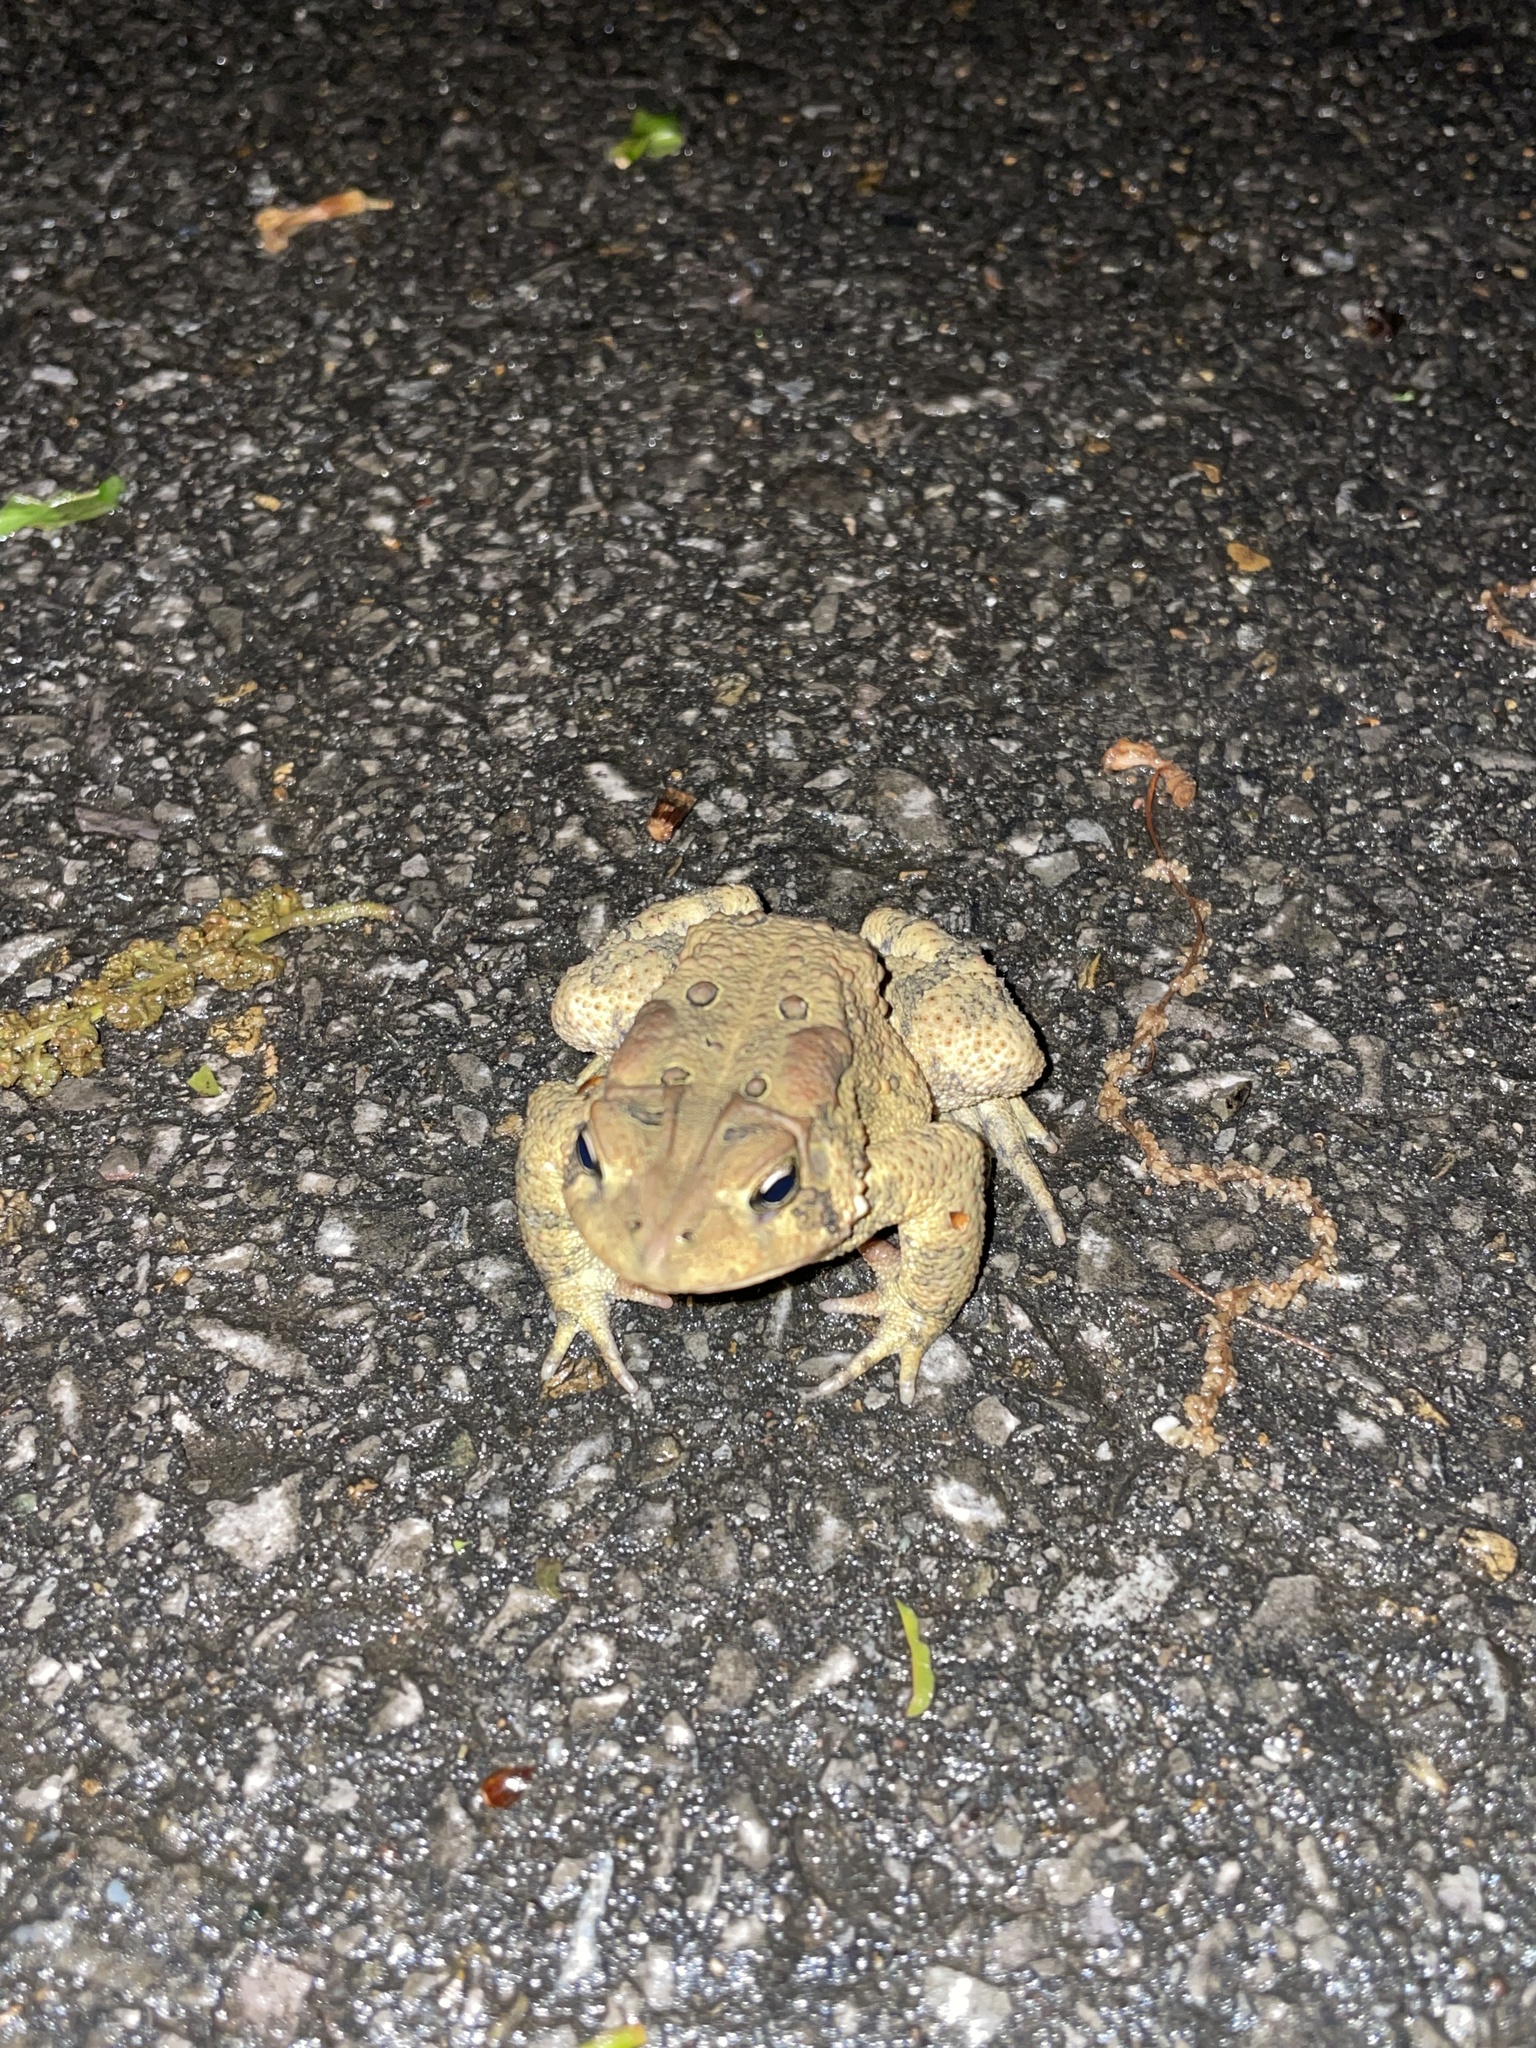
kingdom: Animalia
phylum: Chordata
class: Amphibia
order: Anura
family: Bufonidae
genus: Anaxyrus
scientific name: Anaxyrus americanus
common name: American toad
